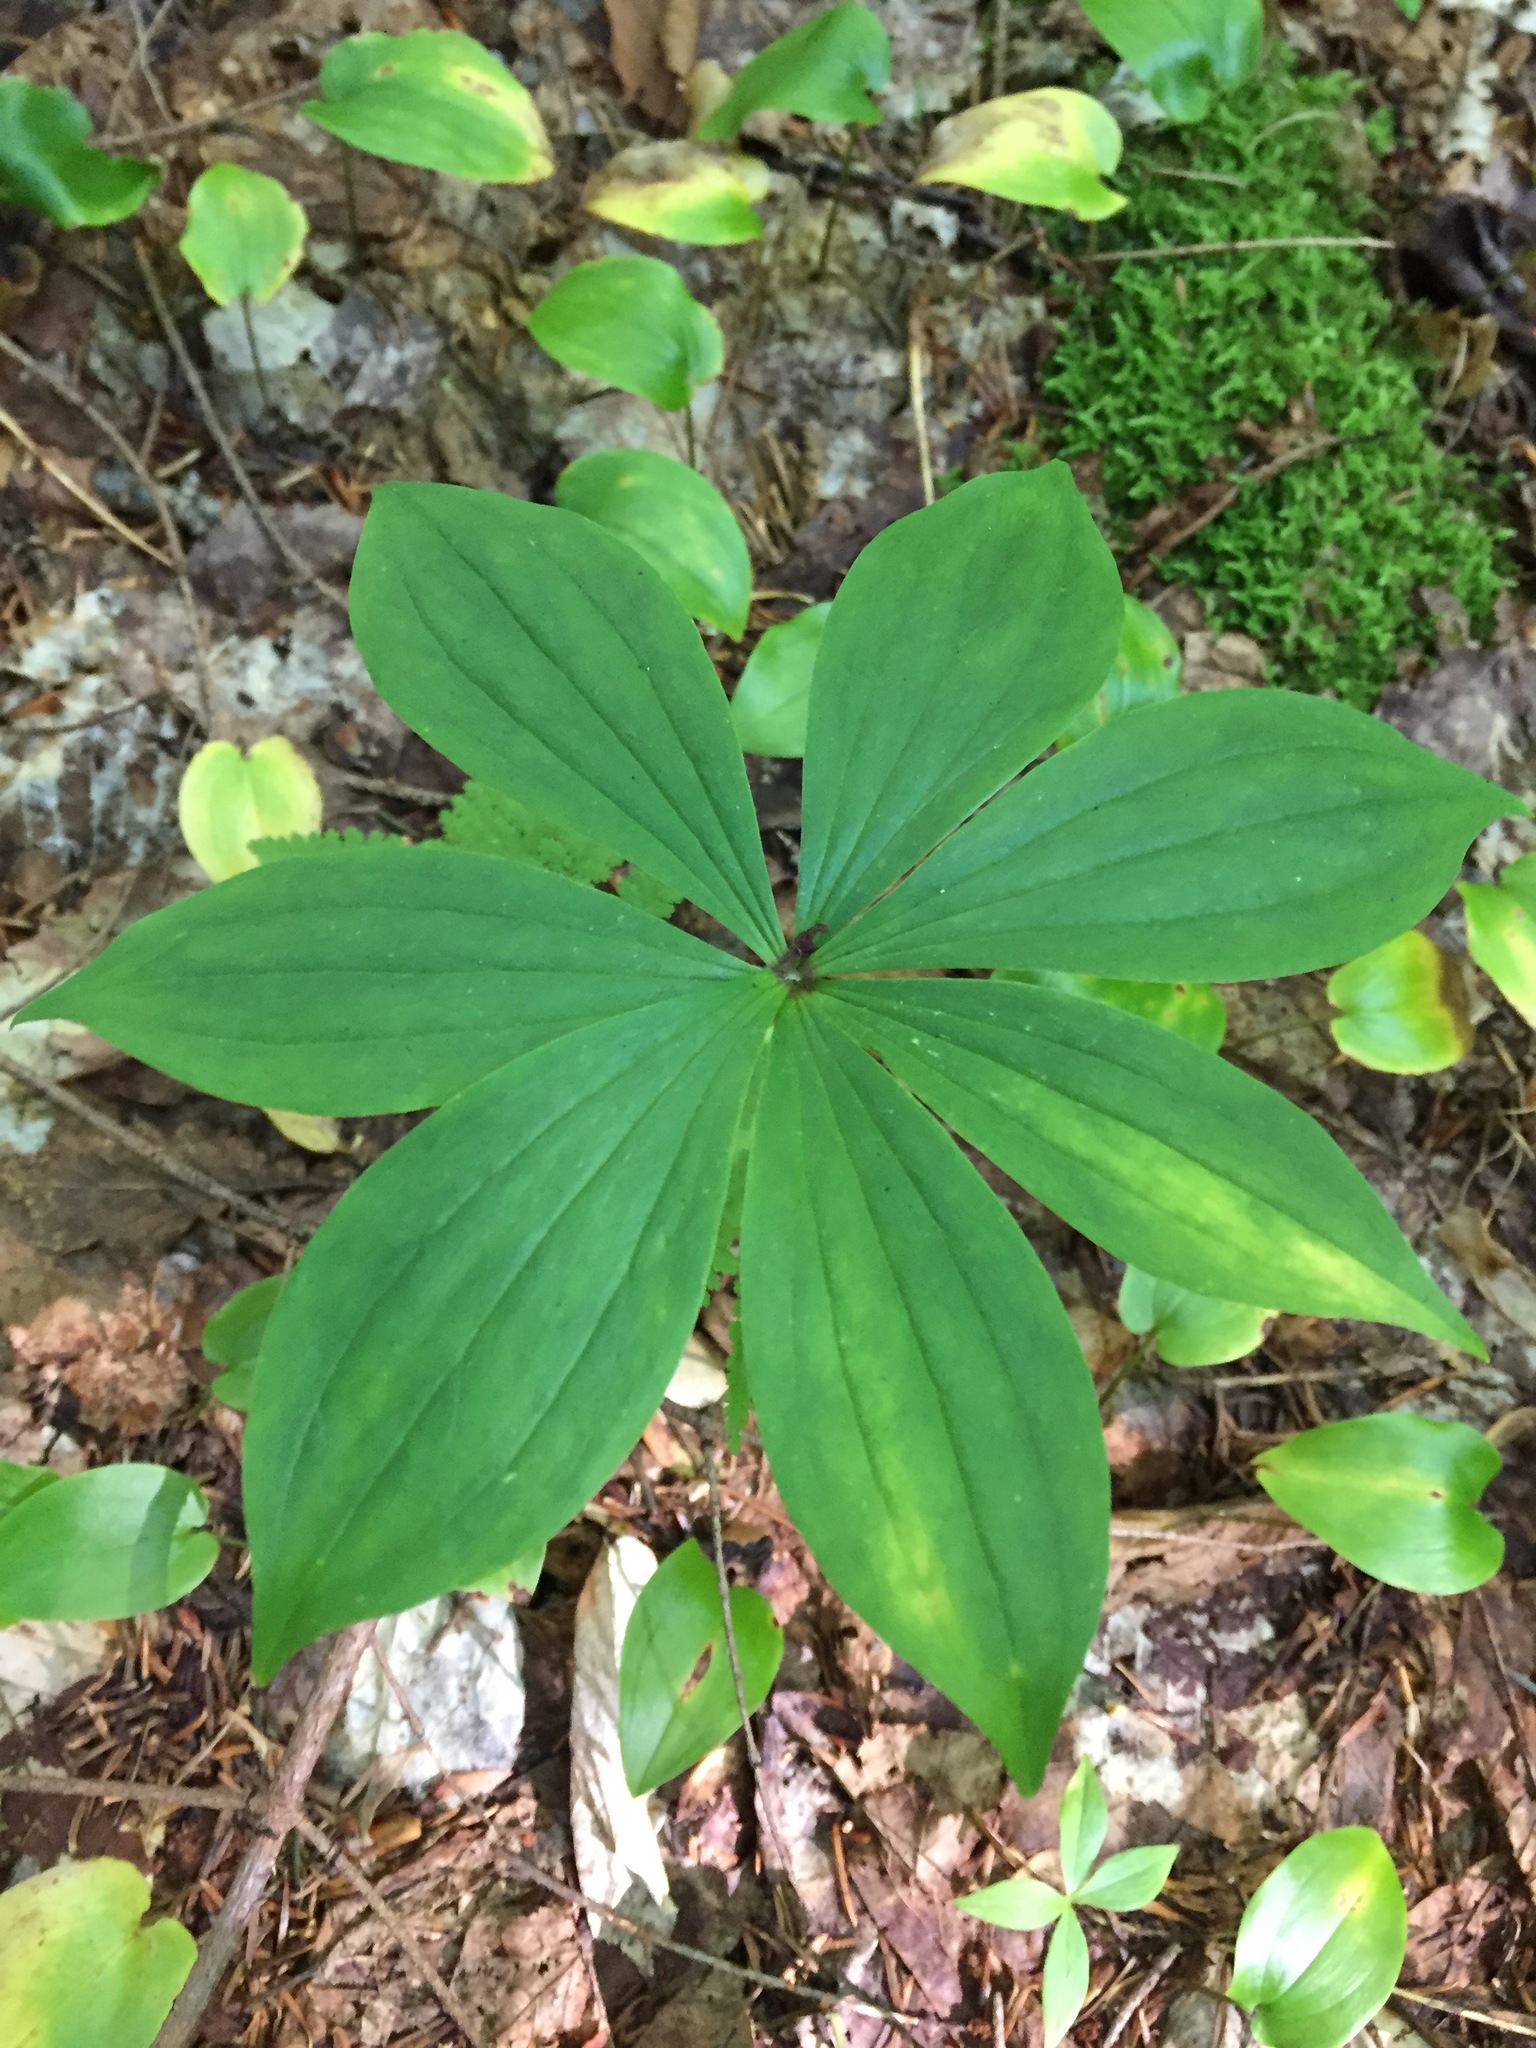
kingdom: Plantae
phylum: Tracheophyta
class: Liliopsida
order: Liliales
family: Liliaceae
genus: Medeola
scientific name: Medeola virginiana
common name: Indian cucumber-root
